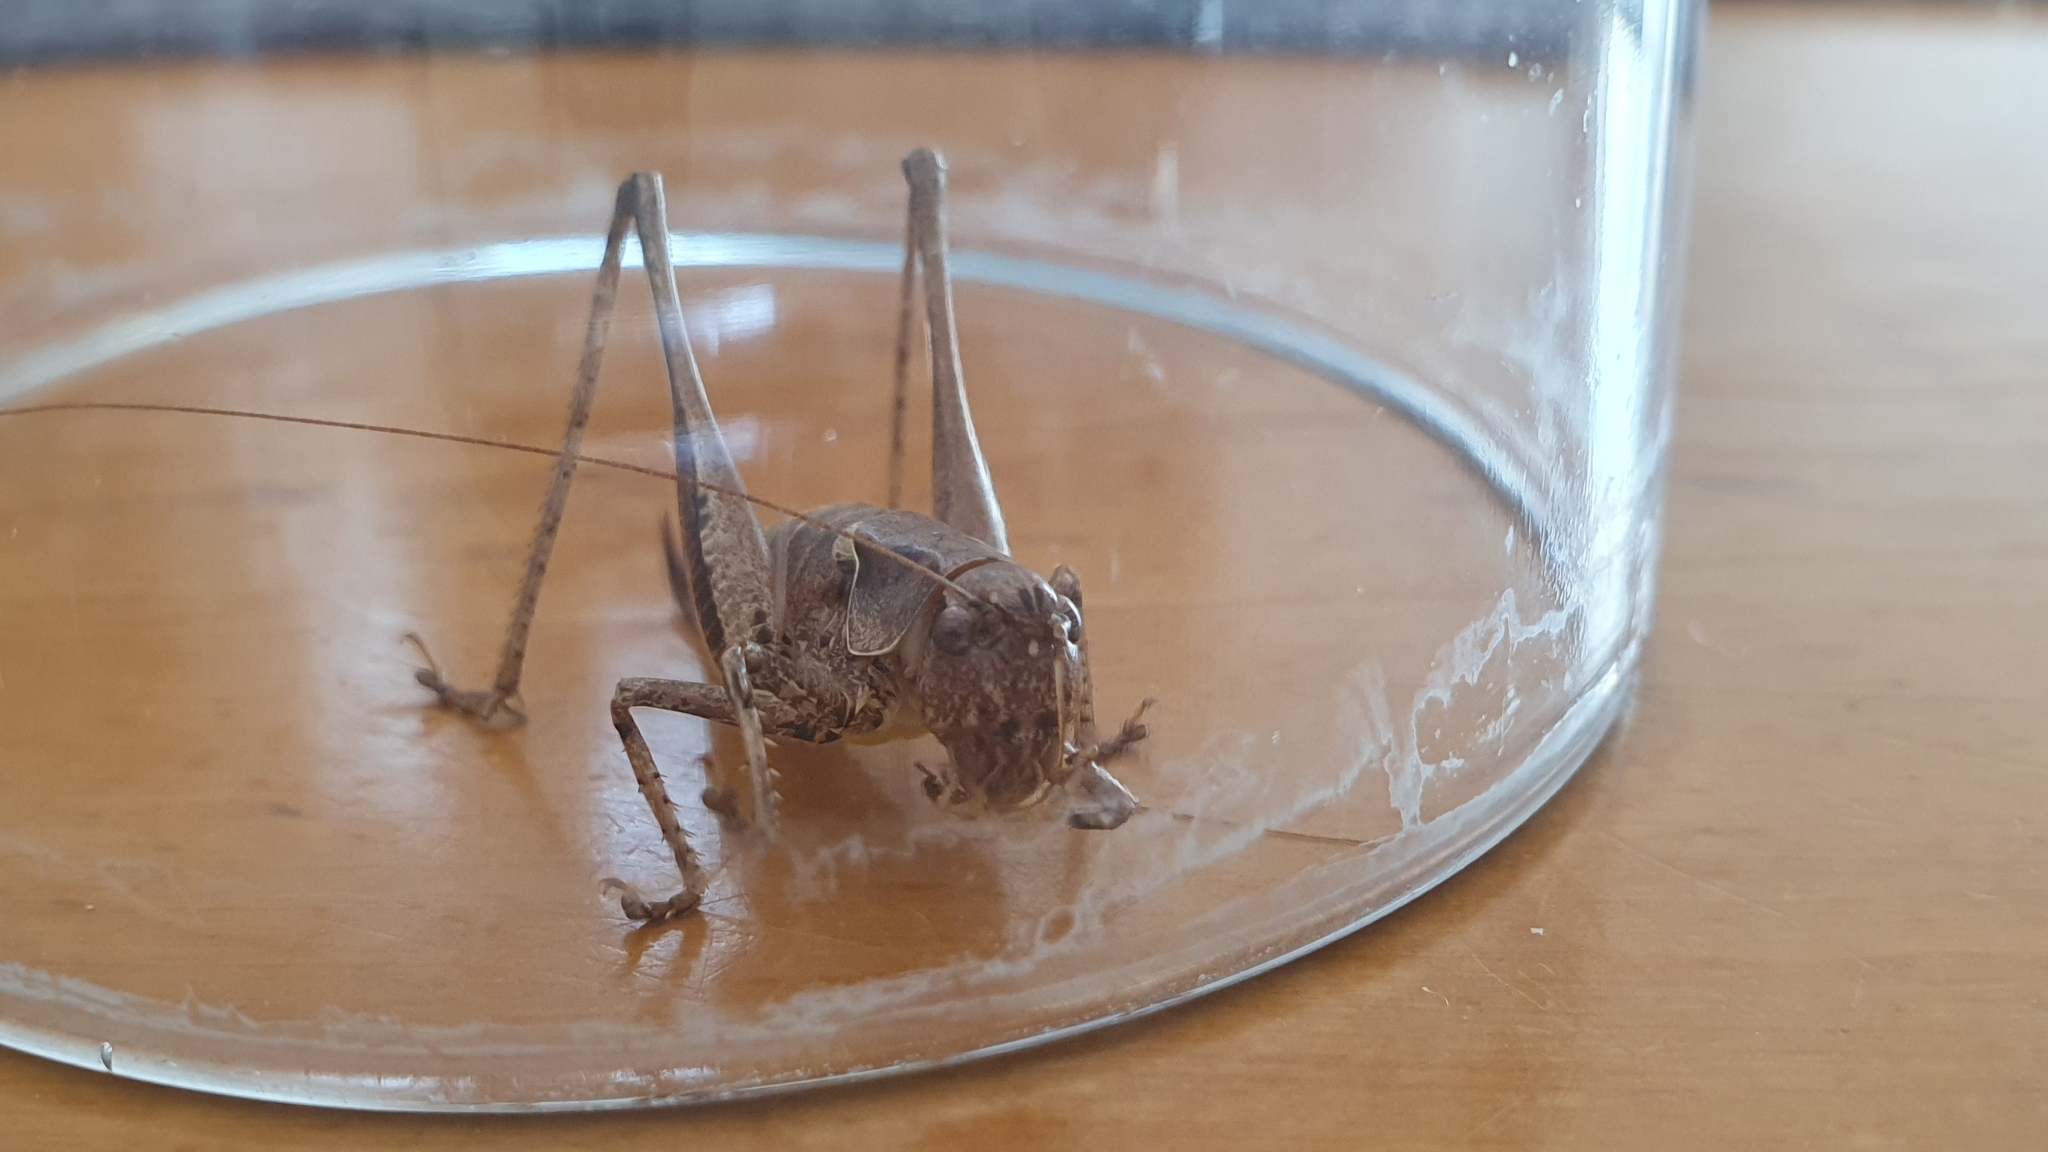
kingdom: Animalia
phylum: Arthropoda
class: Insecta
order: Orthoptera
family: Tettigoniidae
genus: Pholidoptera
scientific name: Pholidoptera griseoaptera
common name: Dark bush-cricket
